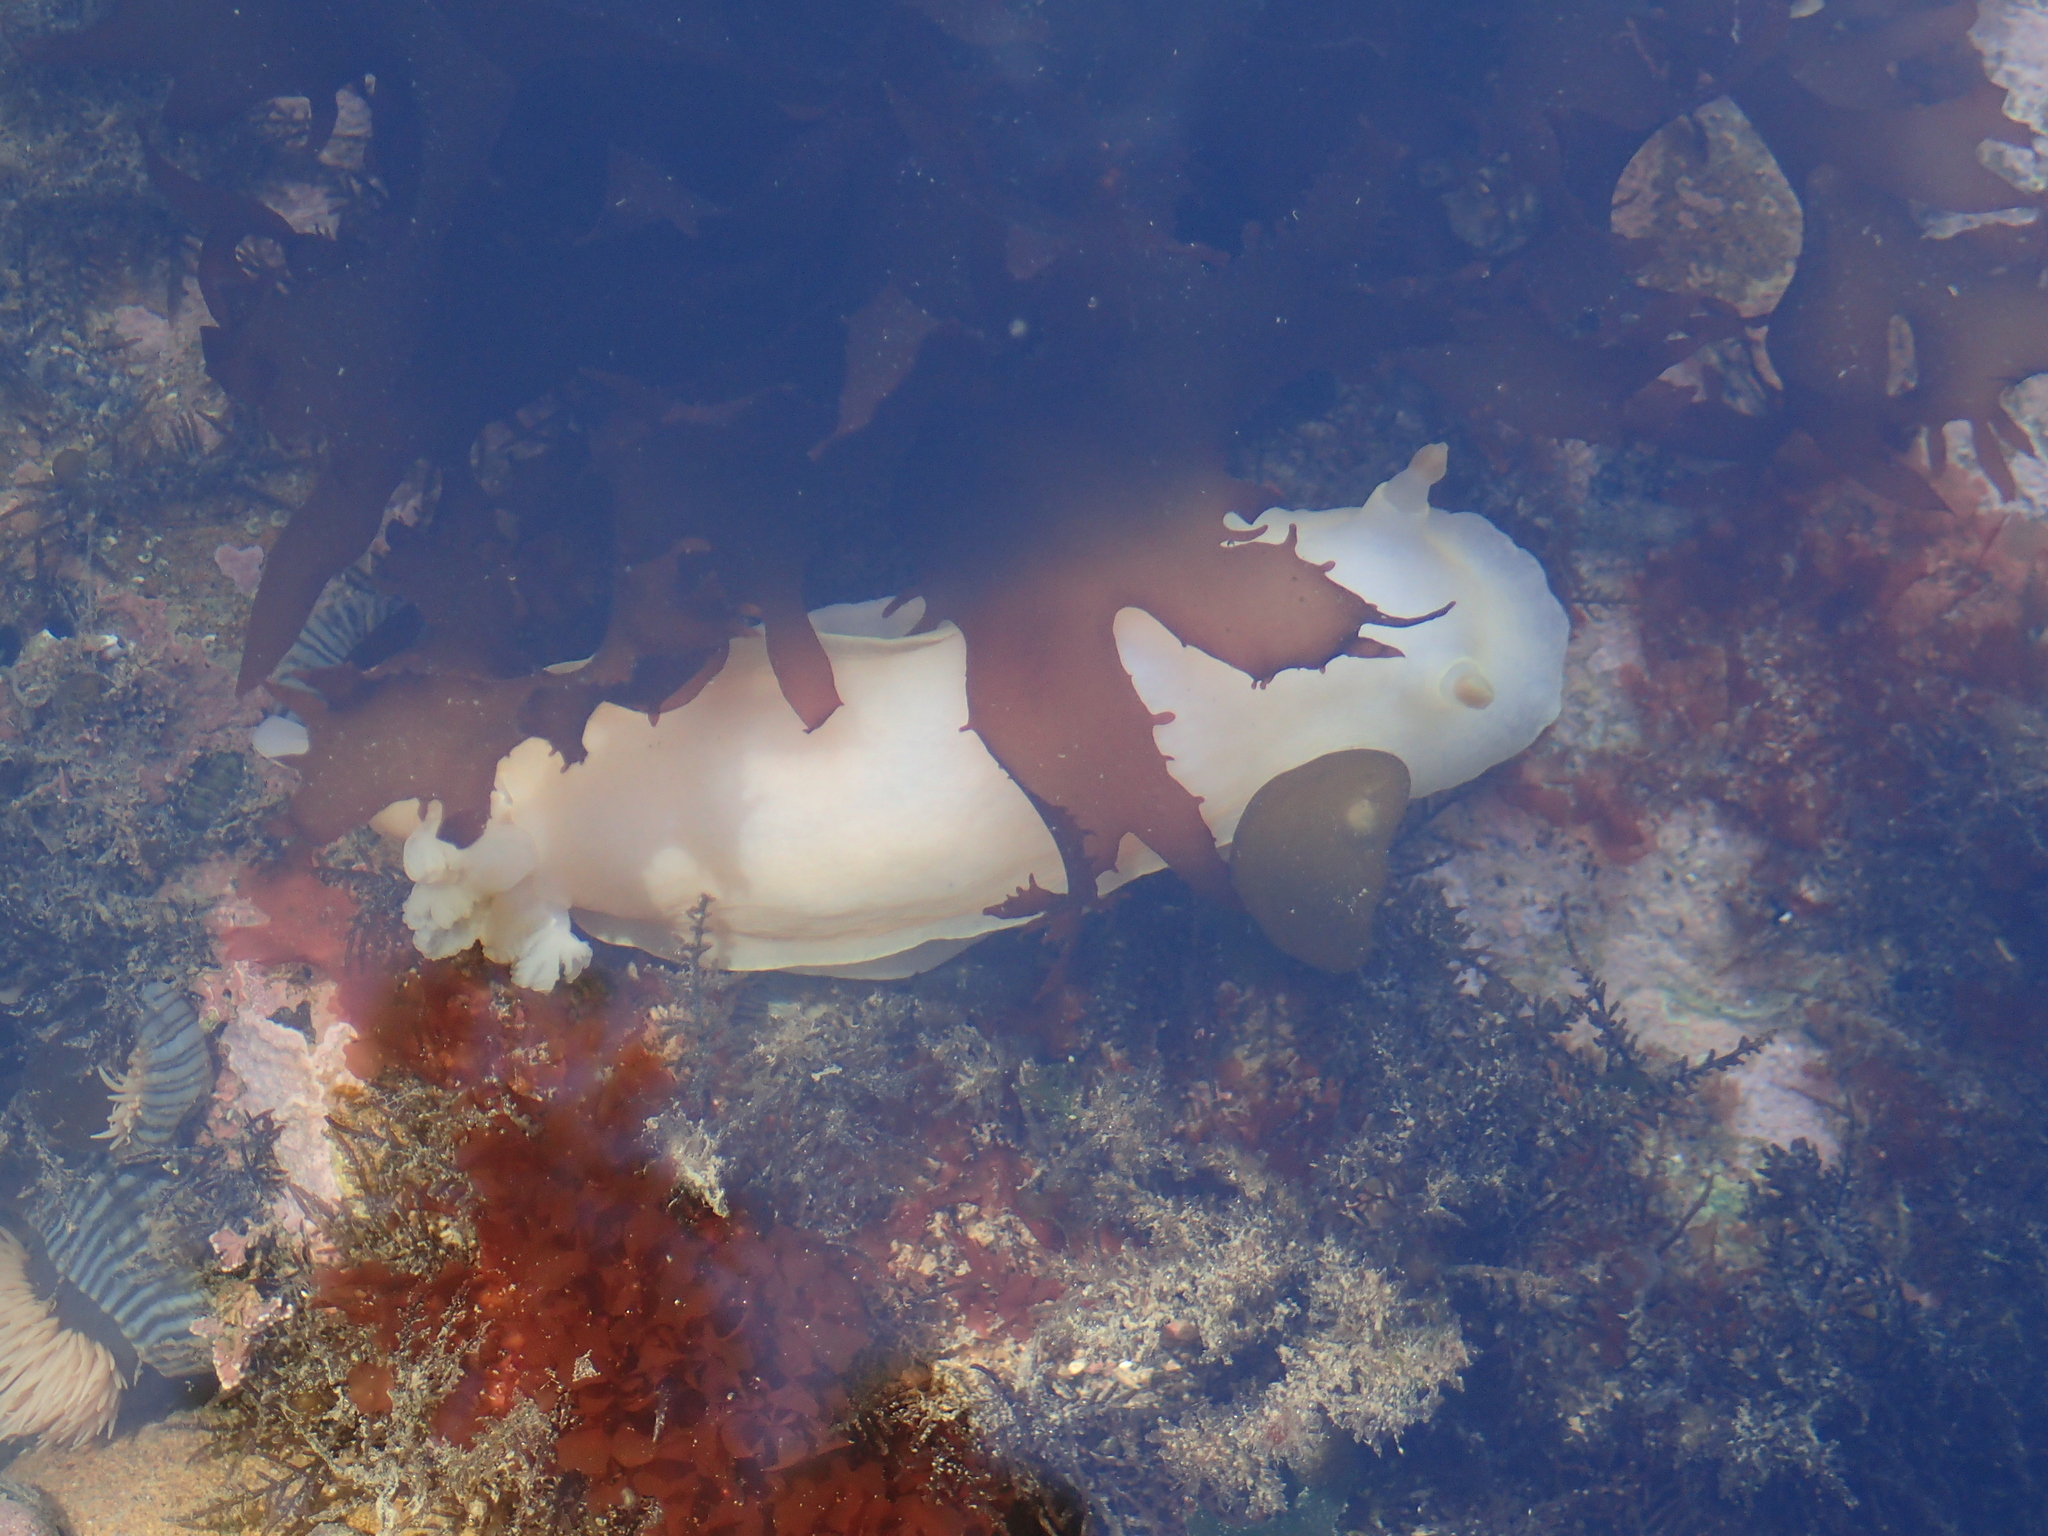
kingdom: Animalia
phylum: Mollusca
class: Gastropoda
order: Nudibranchia
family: Dorididae
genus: Aphelodoris
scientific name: Aphelodoris luctuosa
